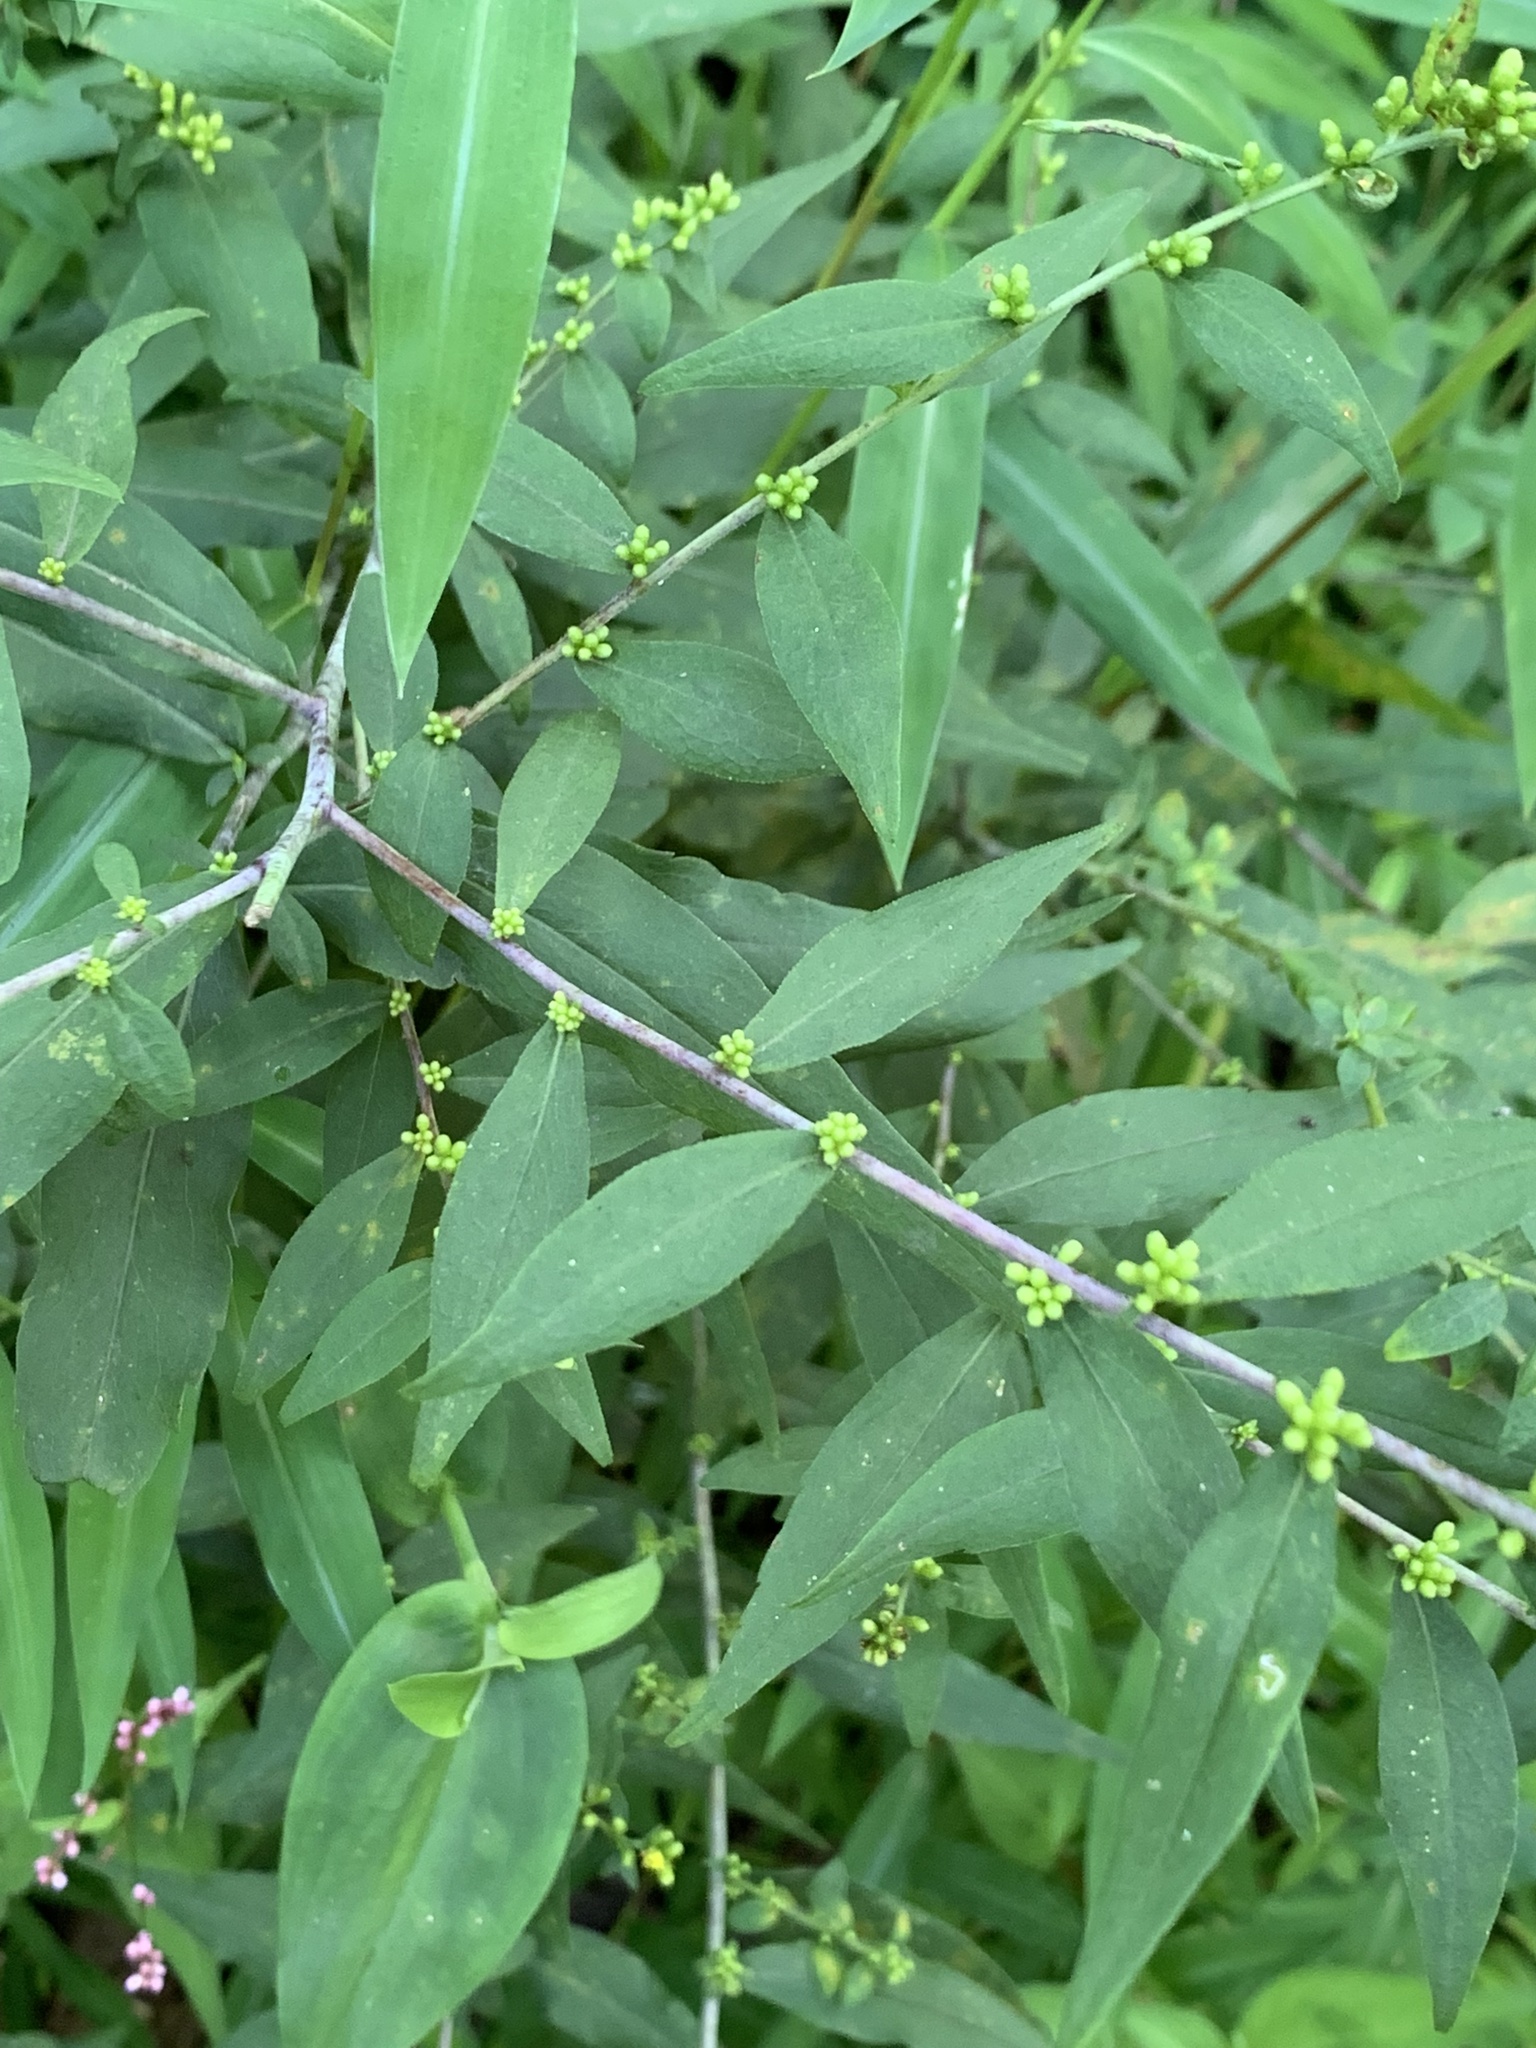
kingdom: Plantae
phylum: Tracheophyta
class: Magnoliopsida
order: Asterales
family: Asteraceae
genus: Solidago
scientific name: Solidago caesia
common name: Woodland goldenrod
